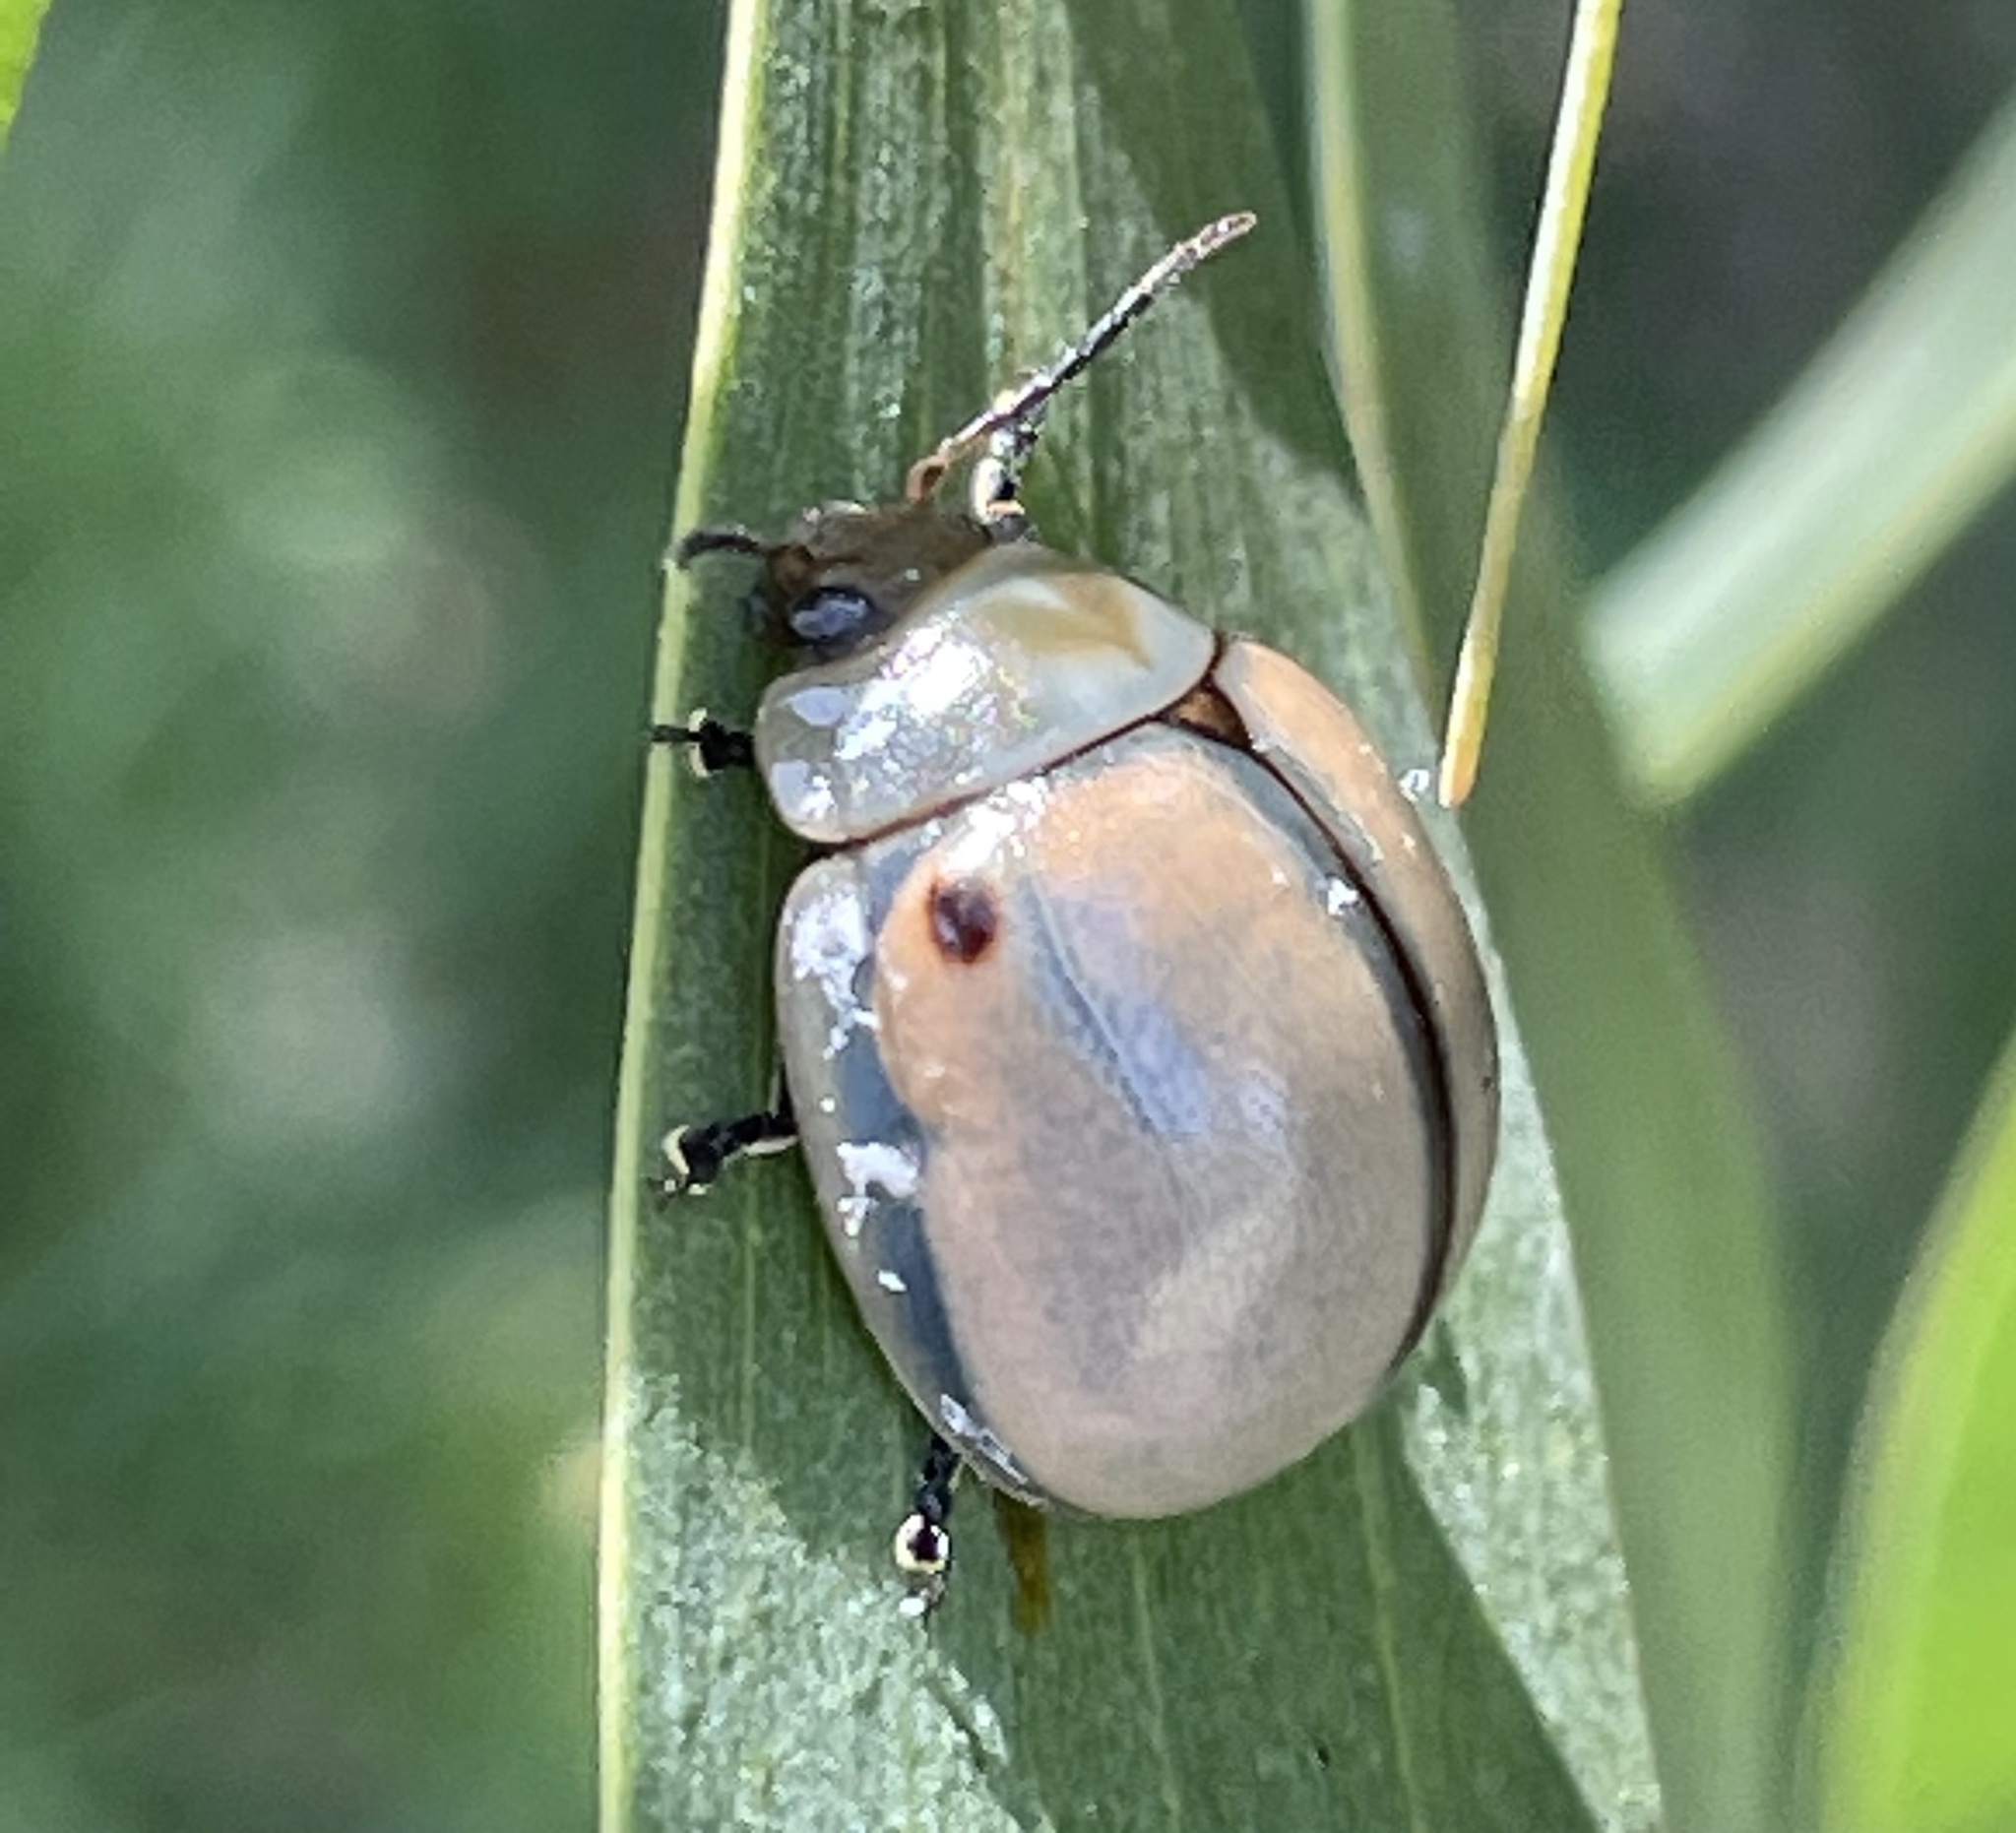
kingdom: Animalia
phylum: Arthropoda
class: Insecta
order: Coleoptera
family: Chrysomelidae
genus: Dicranosterna
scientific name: Dicranosterna
